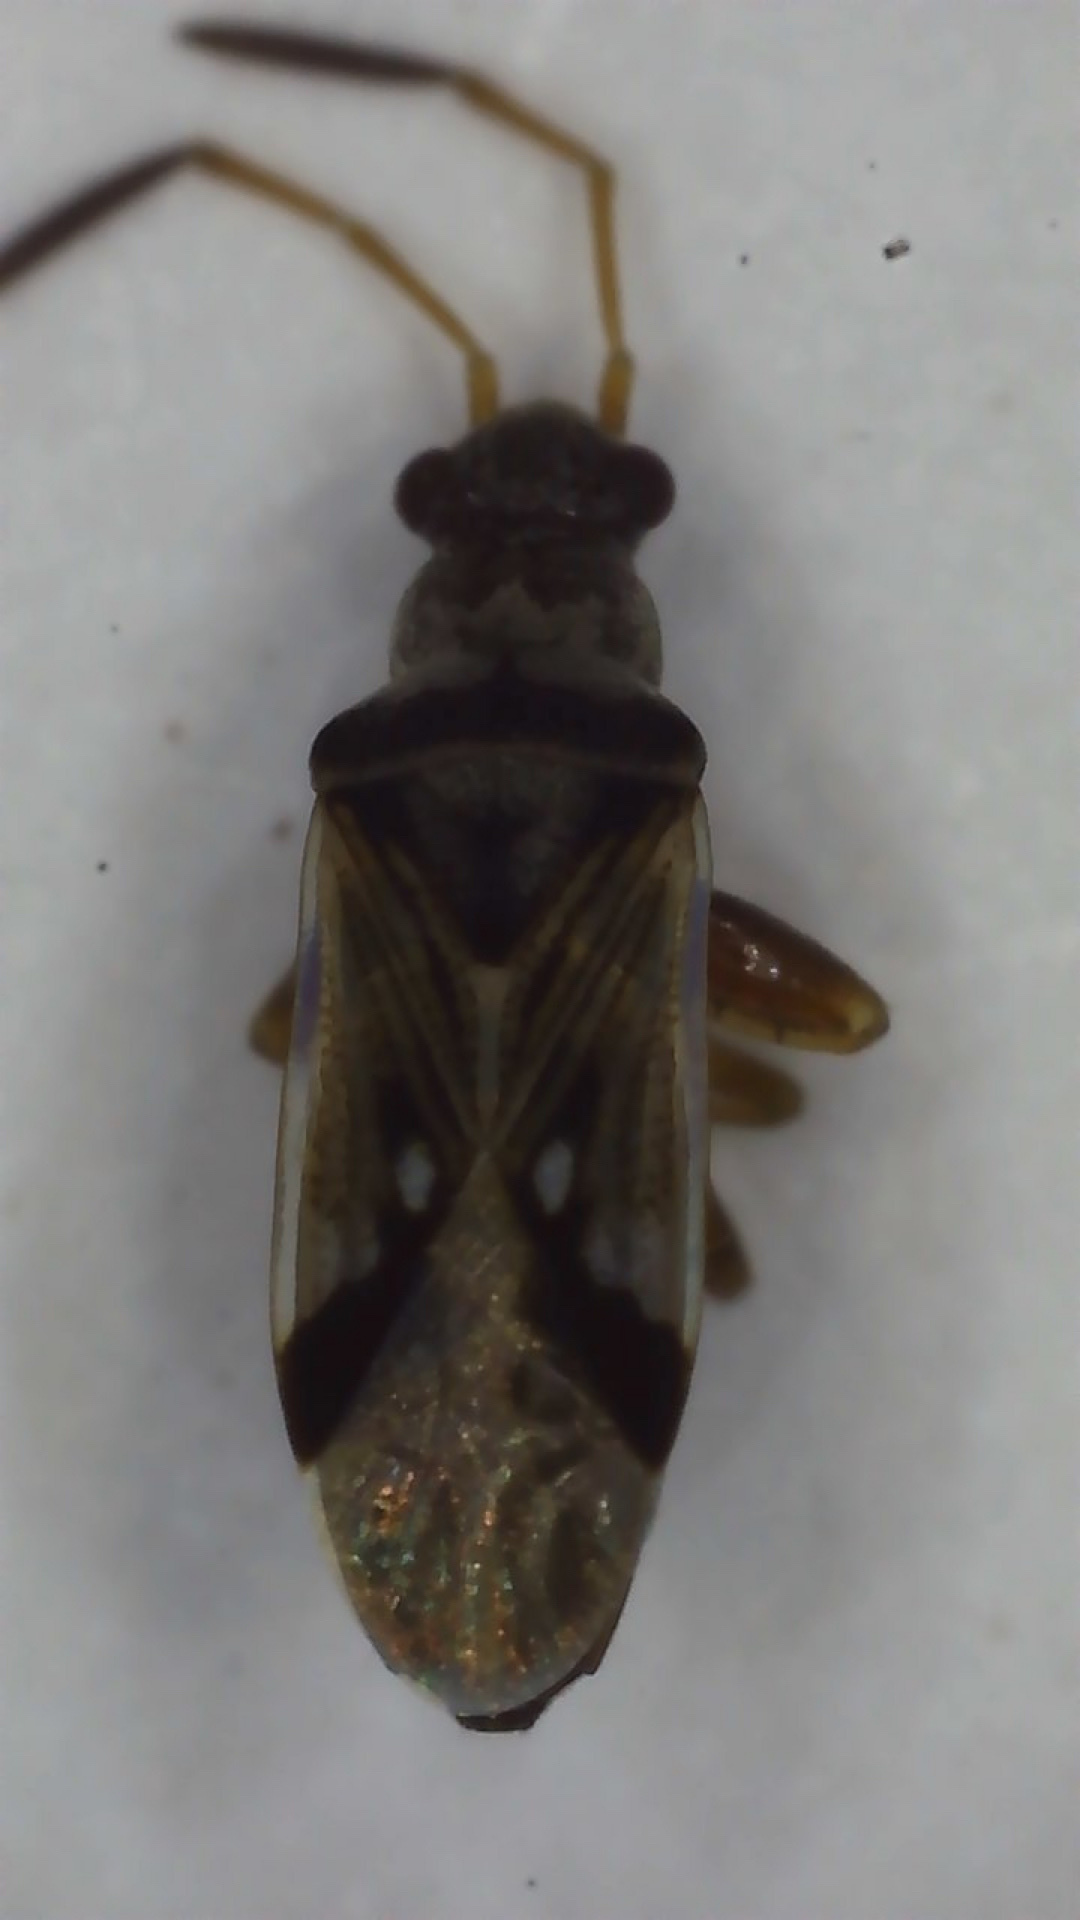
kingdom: Animalia
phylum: Arthropoda
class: Insecta
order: Hemiptera
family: Rhyparochromidae
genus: Pseudopachybrachius
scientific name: Pseudopachybrachius vinctus
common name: Dirt-colored seed bug
